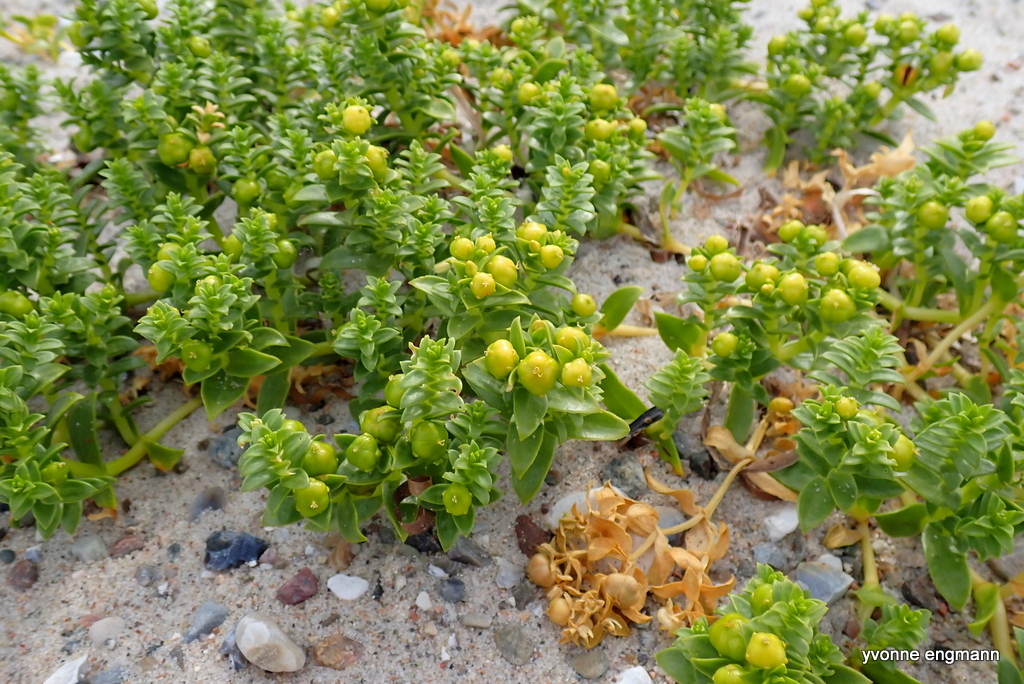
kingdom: Plantae
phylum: Tracheophyta
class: Magnoliopsida
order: Caryophyllales
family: Caryophyllaceae
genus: Honckenya
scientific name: Honckenya peploides
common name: Sea sandwort
